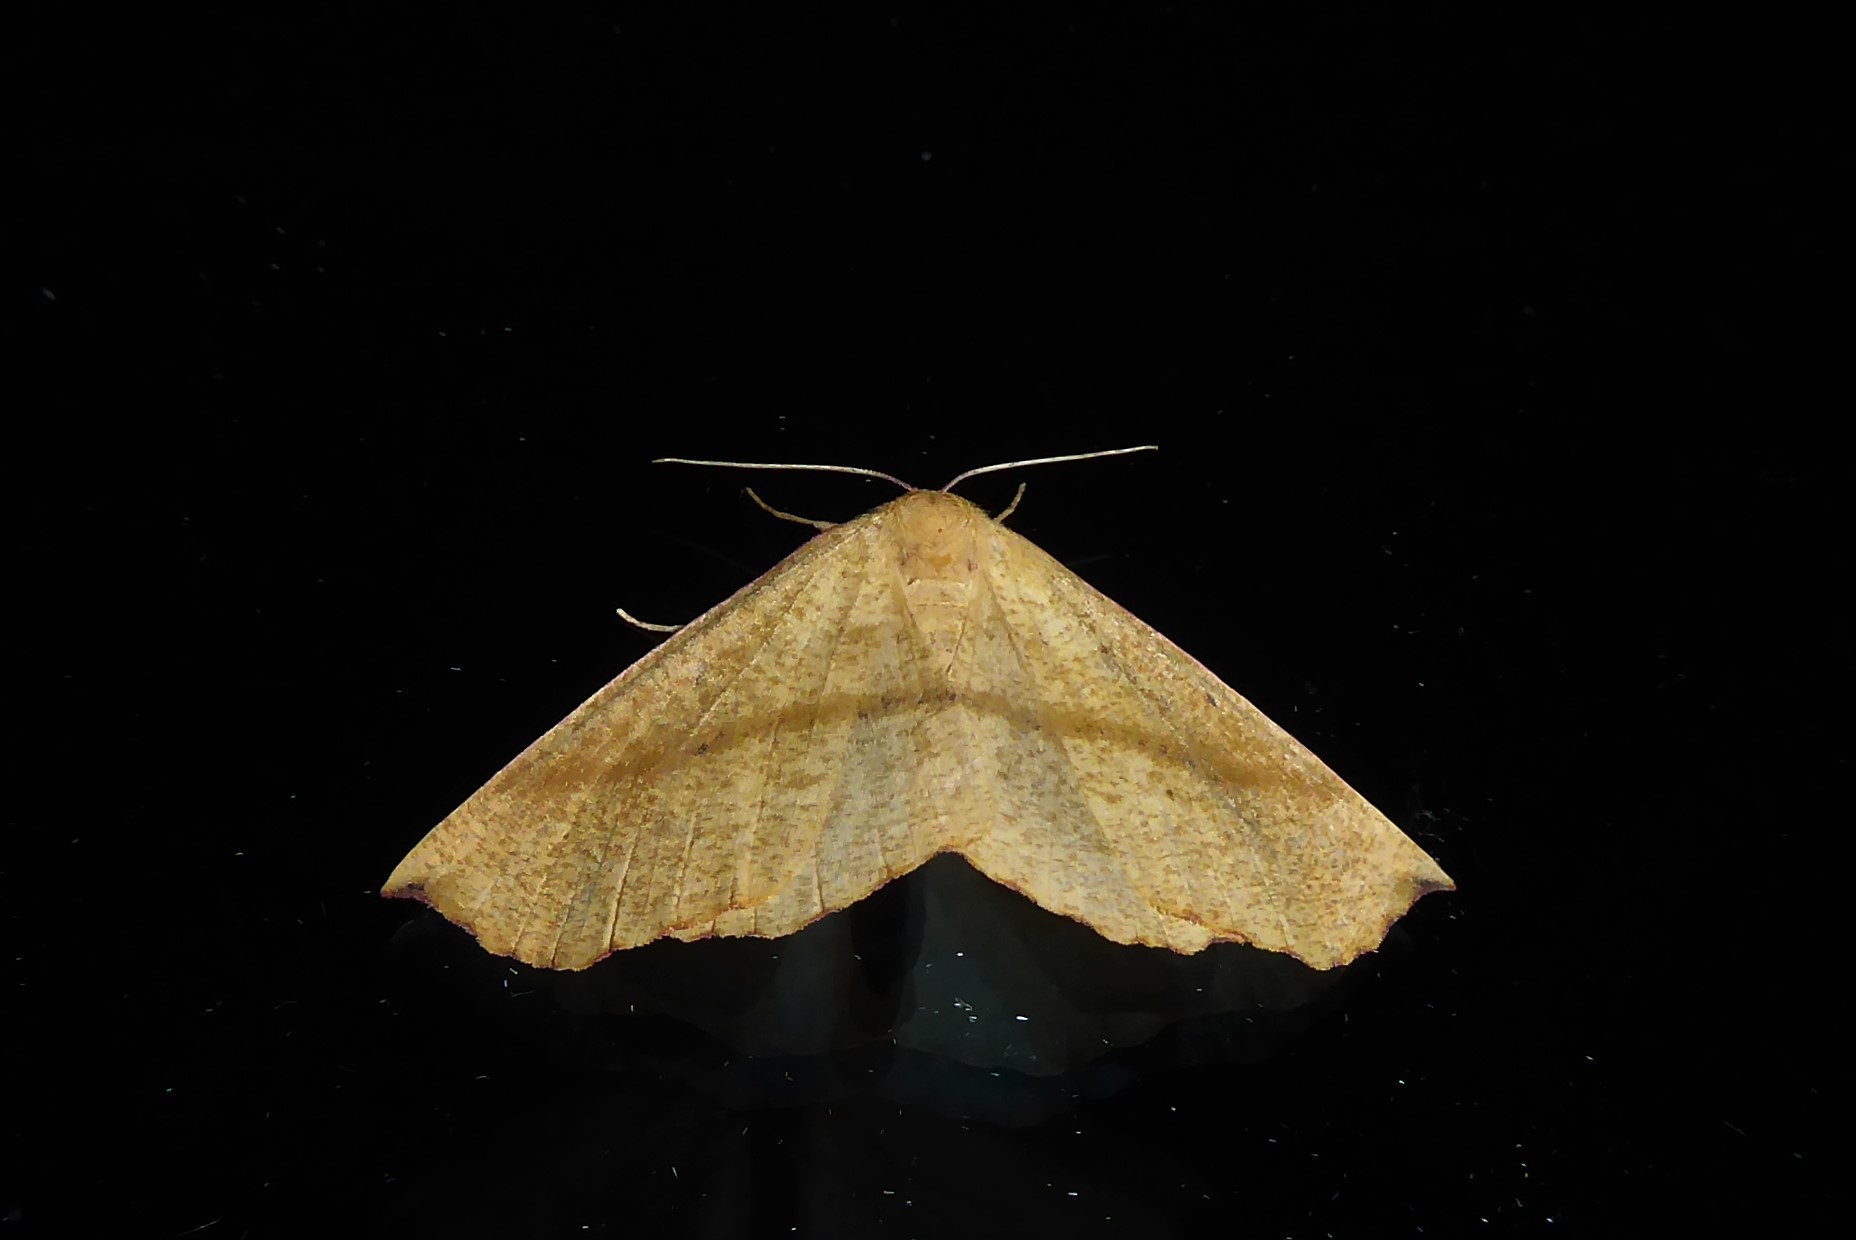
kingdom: Animalia
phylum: Arthropoda
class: Insecta
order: Lepidoptera
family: Geometridae
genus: Xyridacma
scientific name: Xyridacma alectoraria
